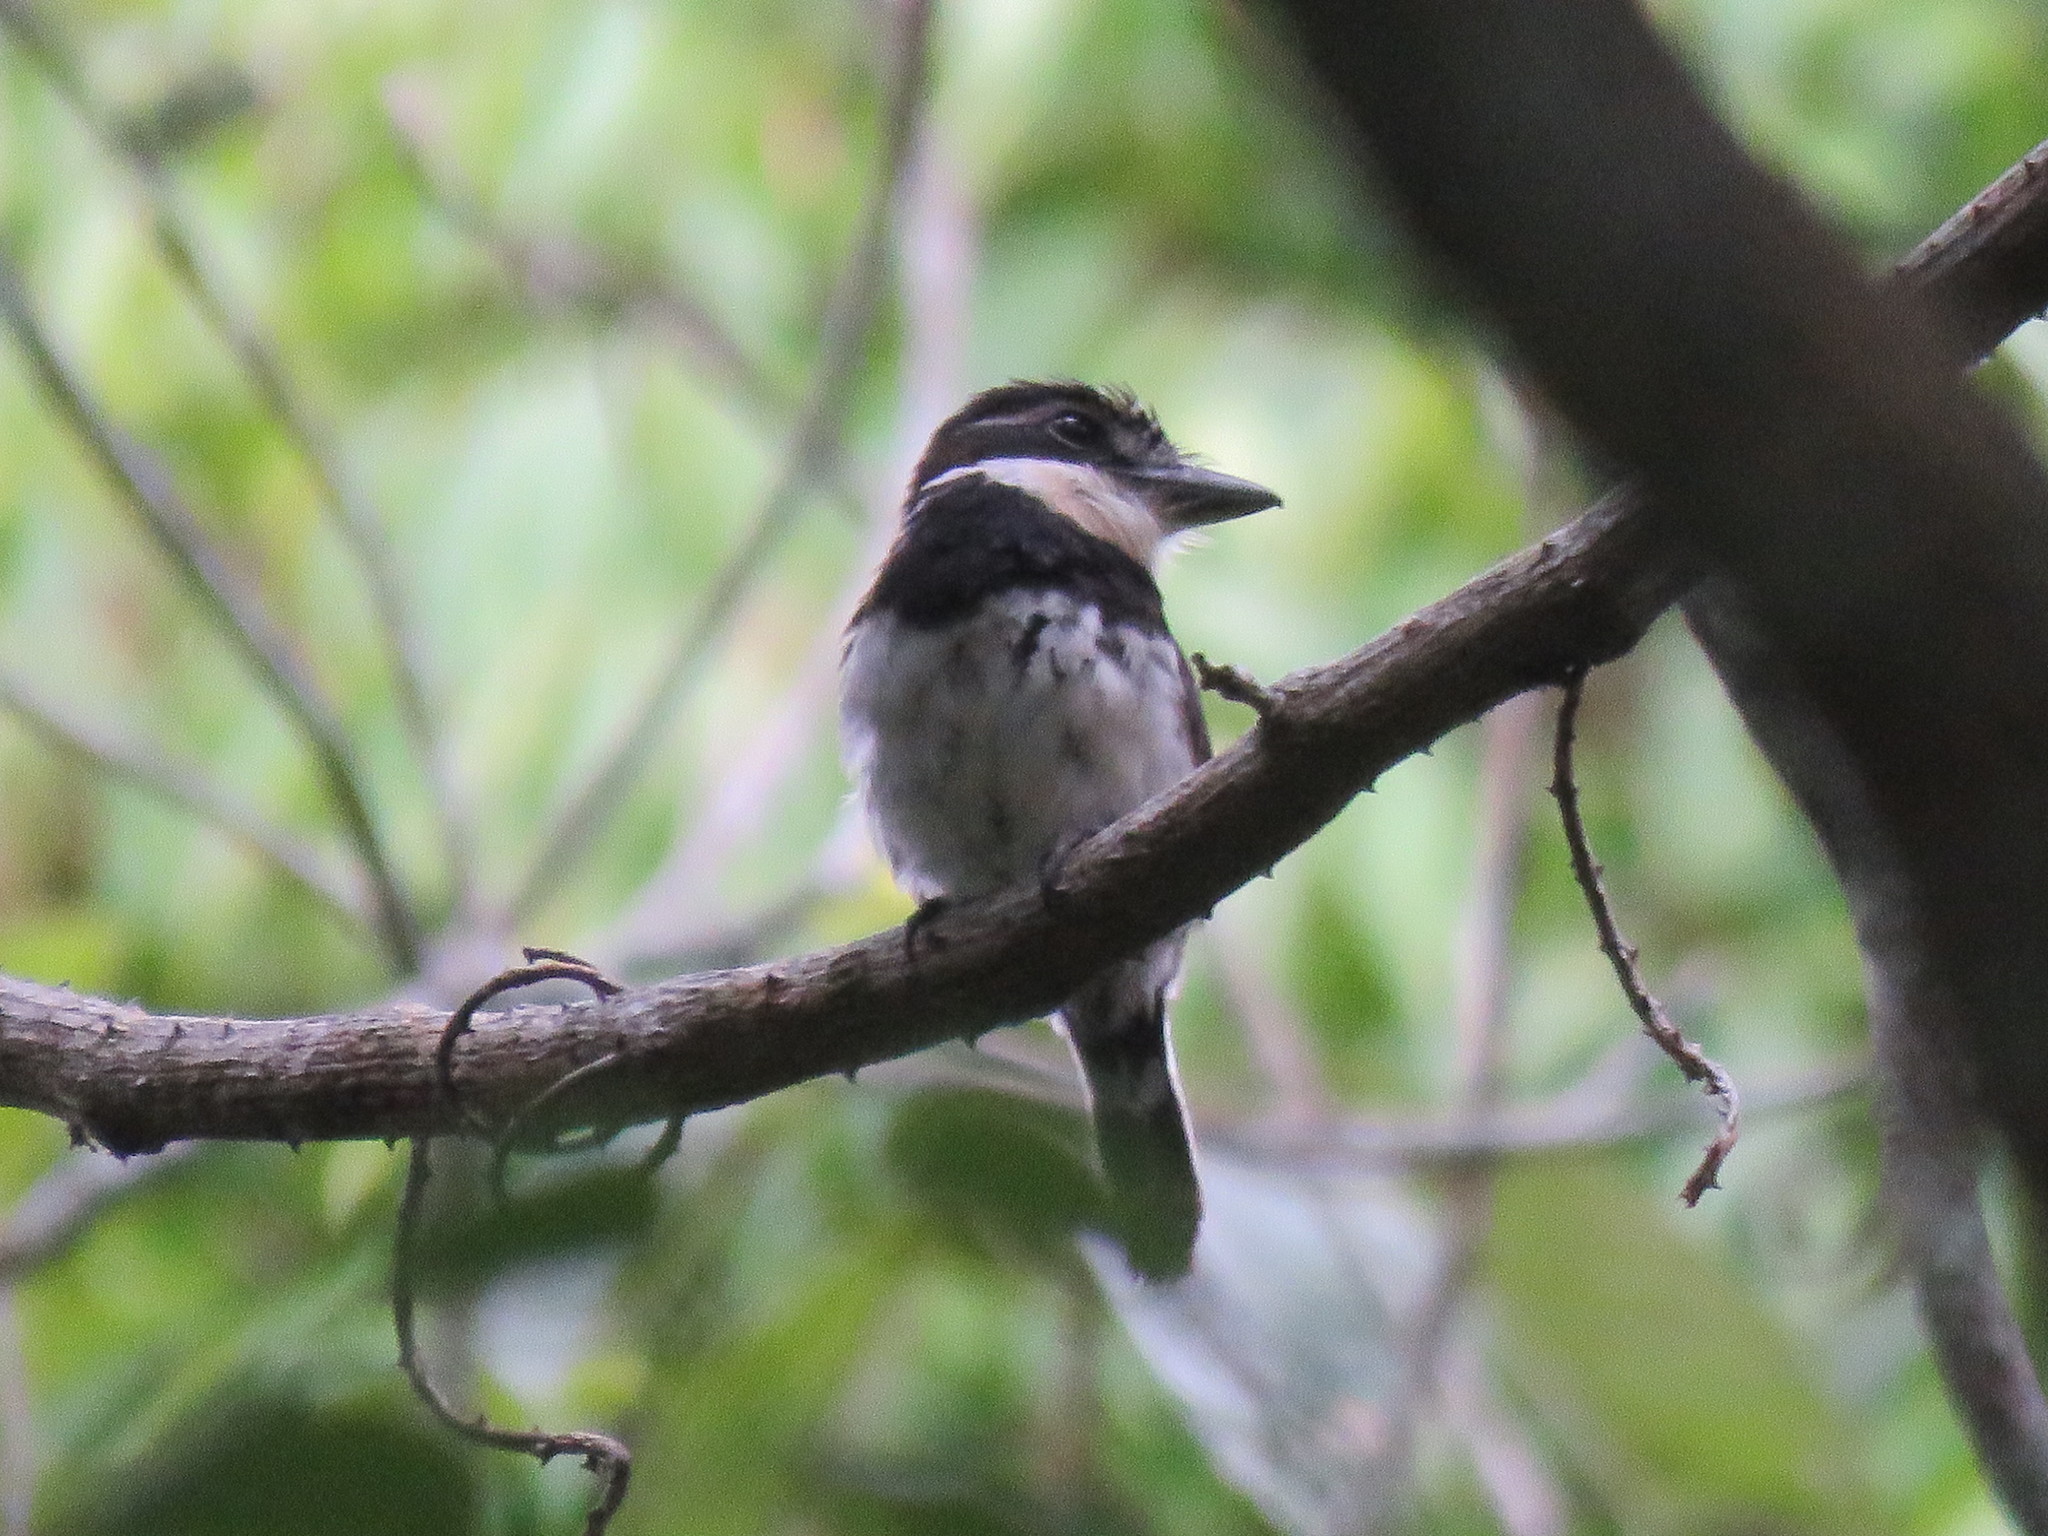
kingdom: Animalia
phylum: Chordata
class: Aves
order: Piciformes
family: Bucconidae
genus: Notharchus
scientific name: Notharchus tectus
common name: Pied puffbird
